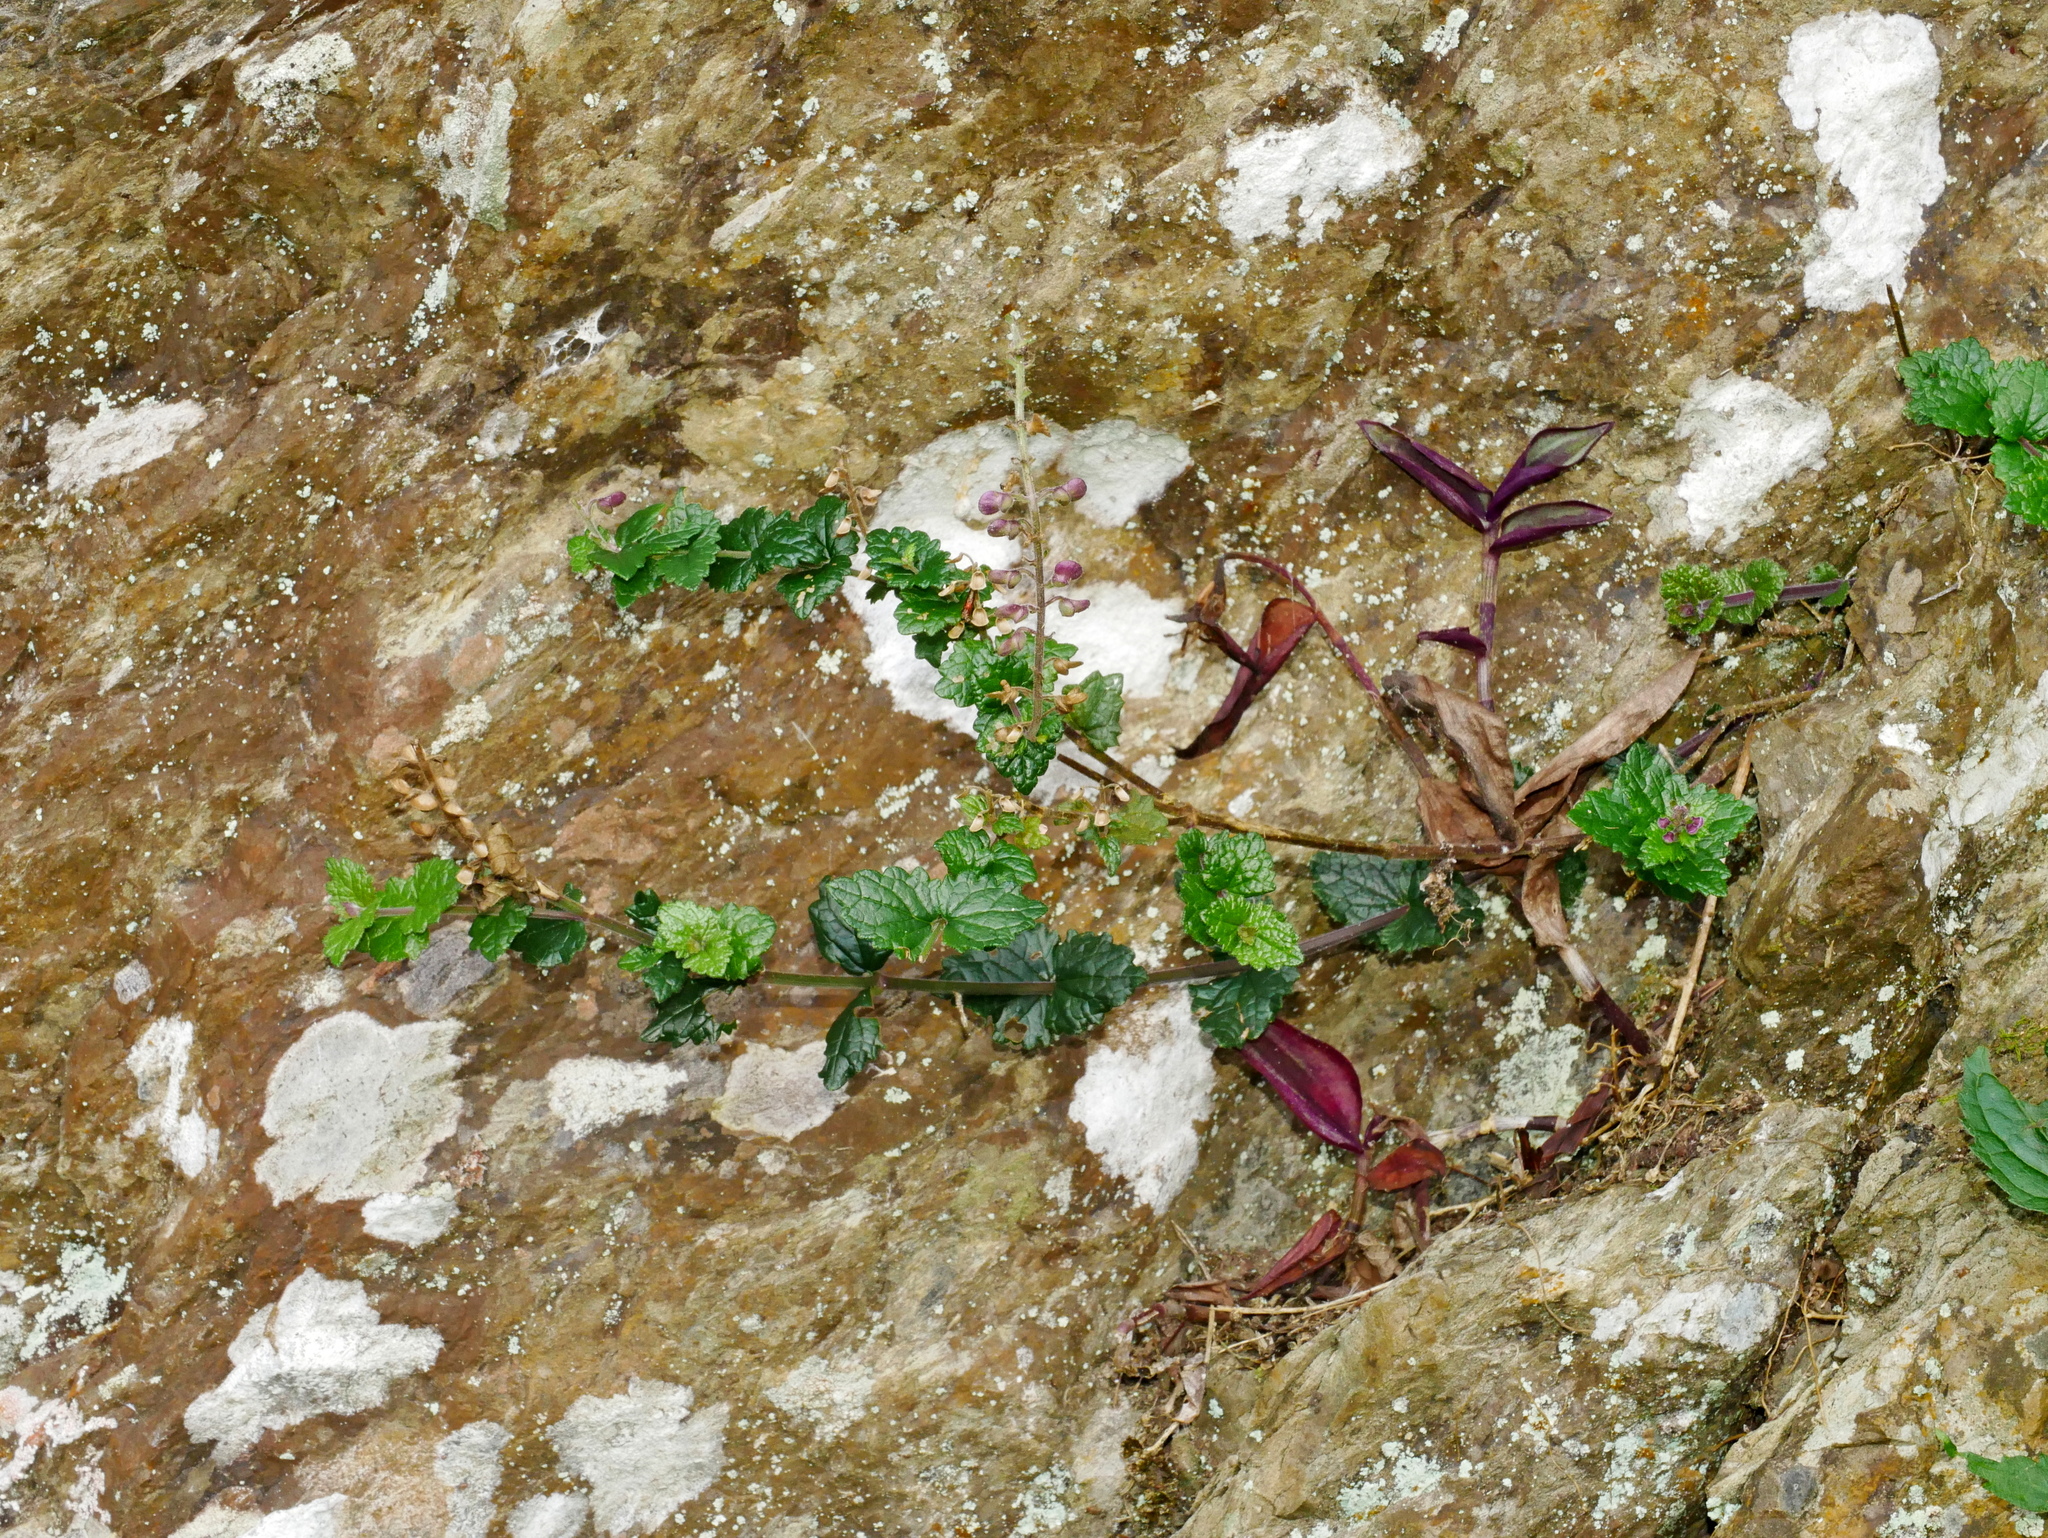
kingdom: Plantae
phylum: Tracheophyta
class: Magnoliopsida
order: Lamiales
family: Lamiaceae
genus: Scutellaria
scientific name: Scutellaria indica
